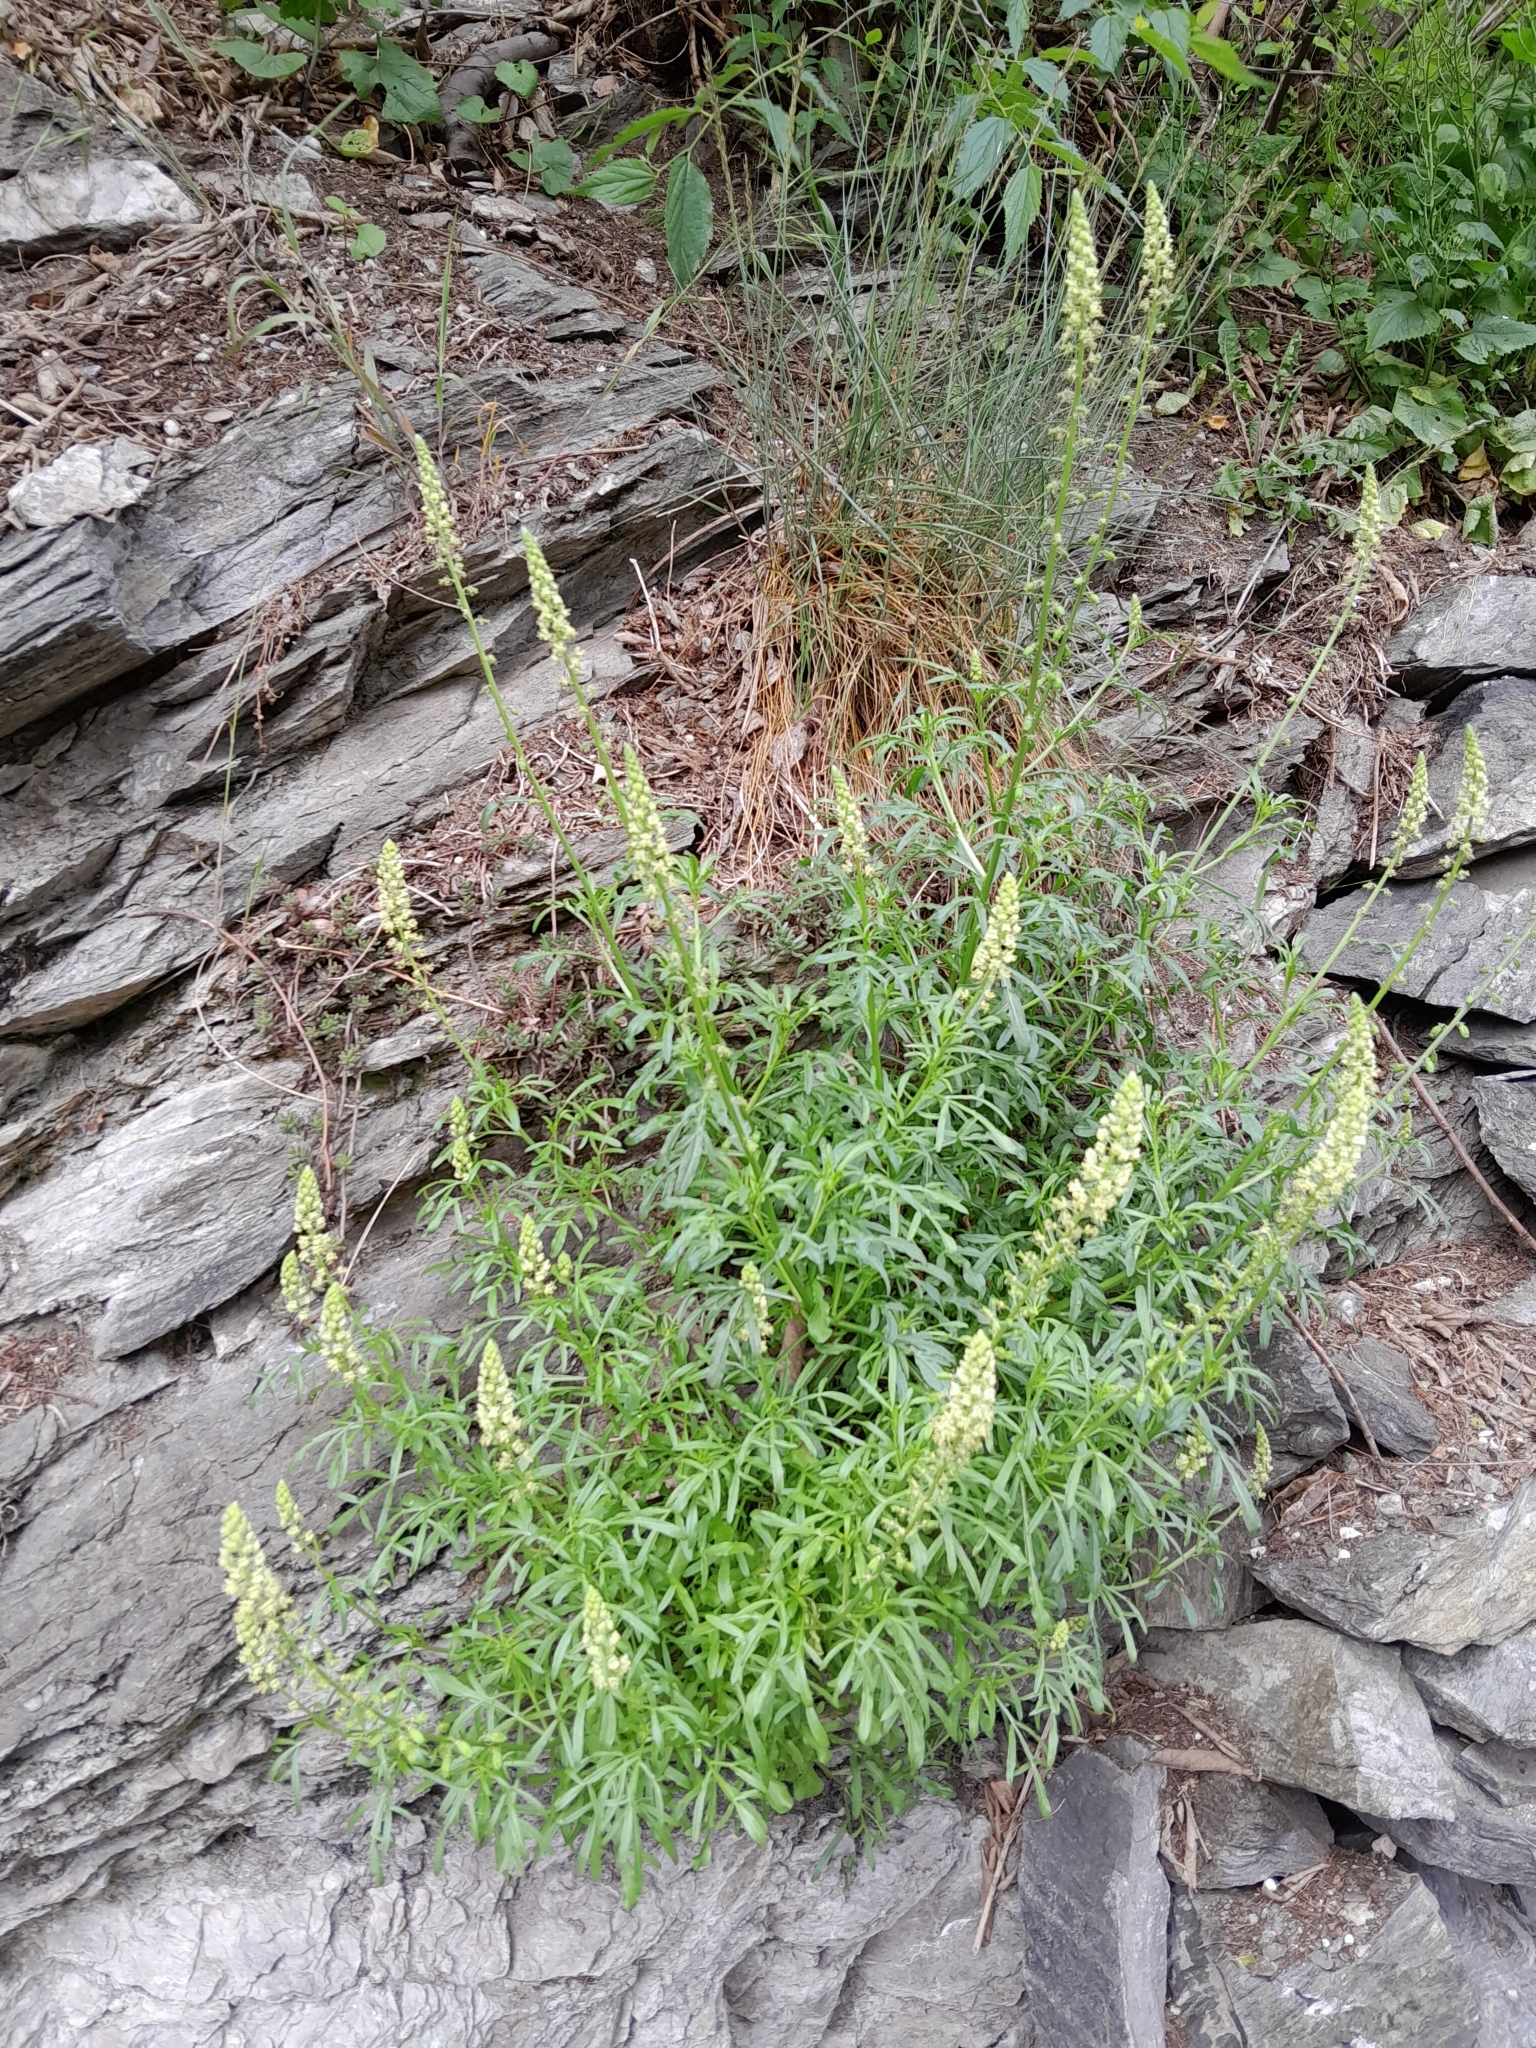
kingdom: Plantae
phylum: Tracheophyta
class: Magnoliopsida
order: Brassicales
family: Resedaceae
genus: Reseda
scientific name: Reseda lutea
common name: Wild mignonette
